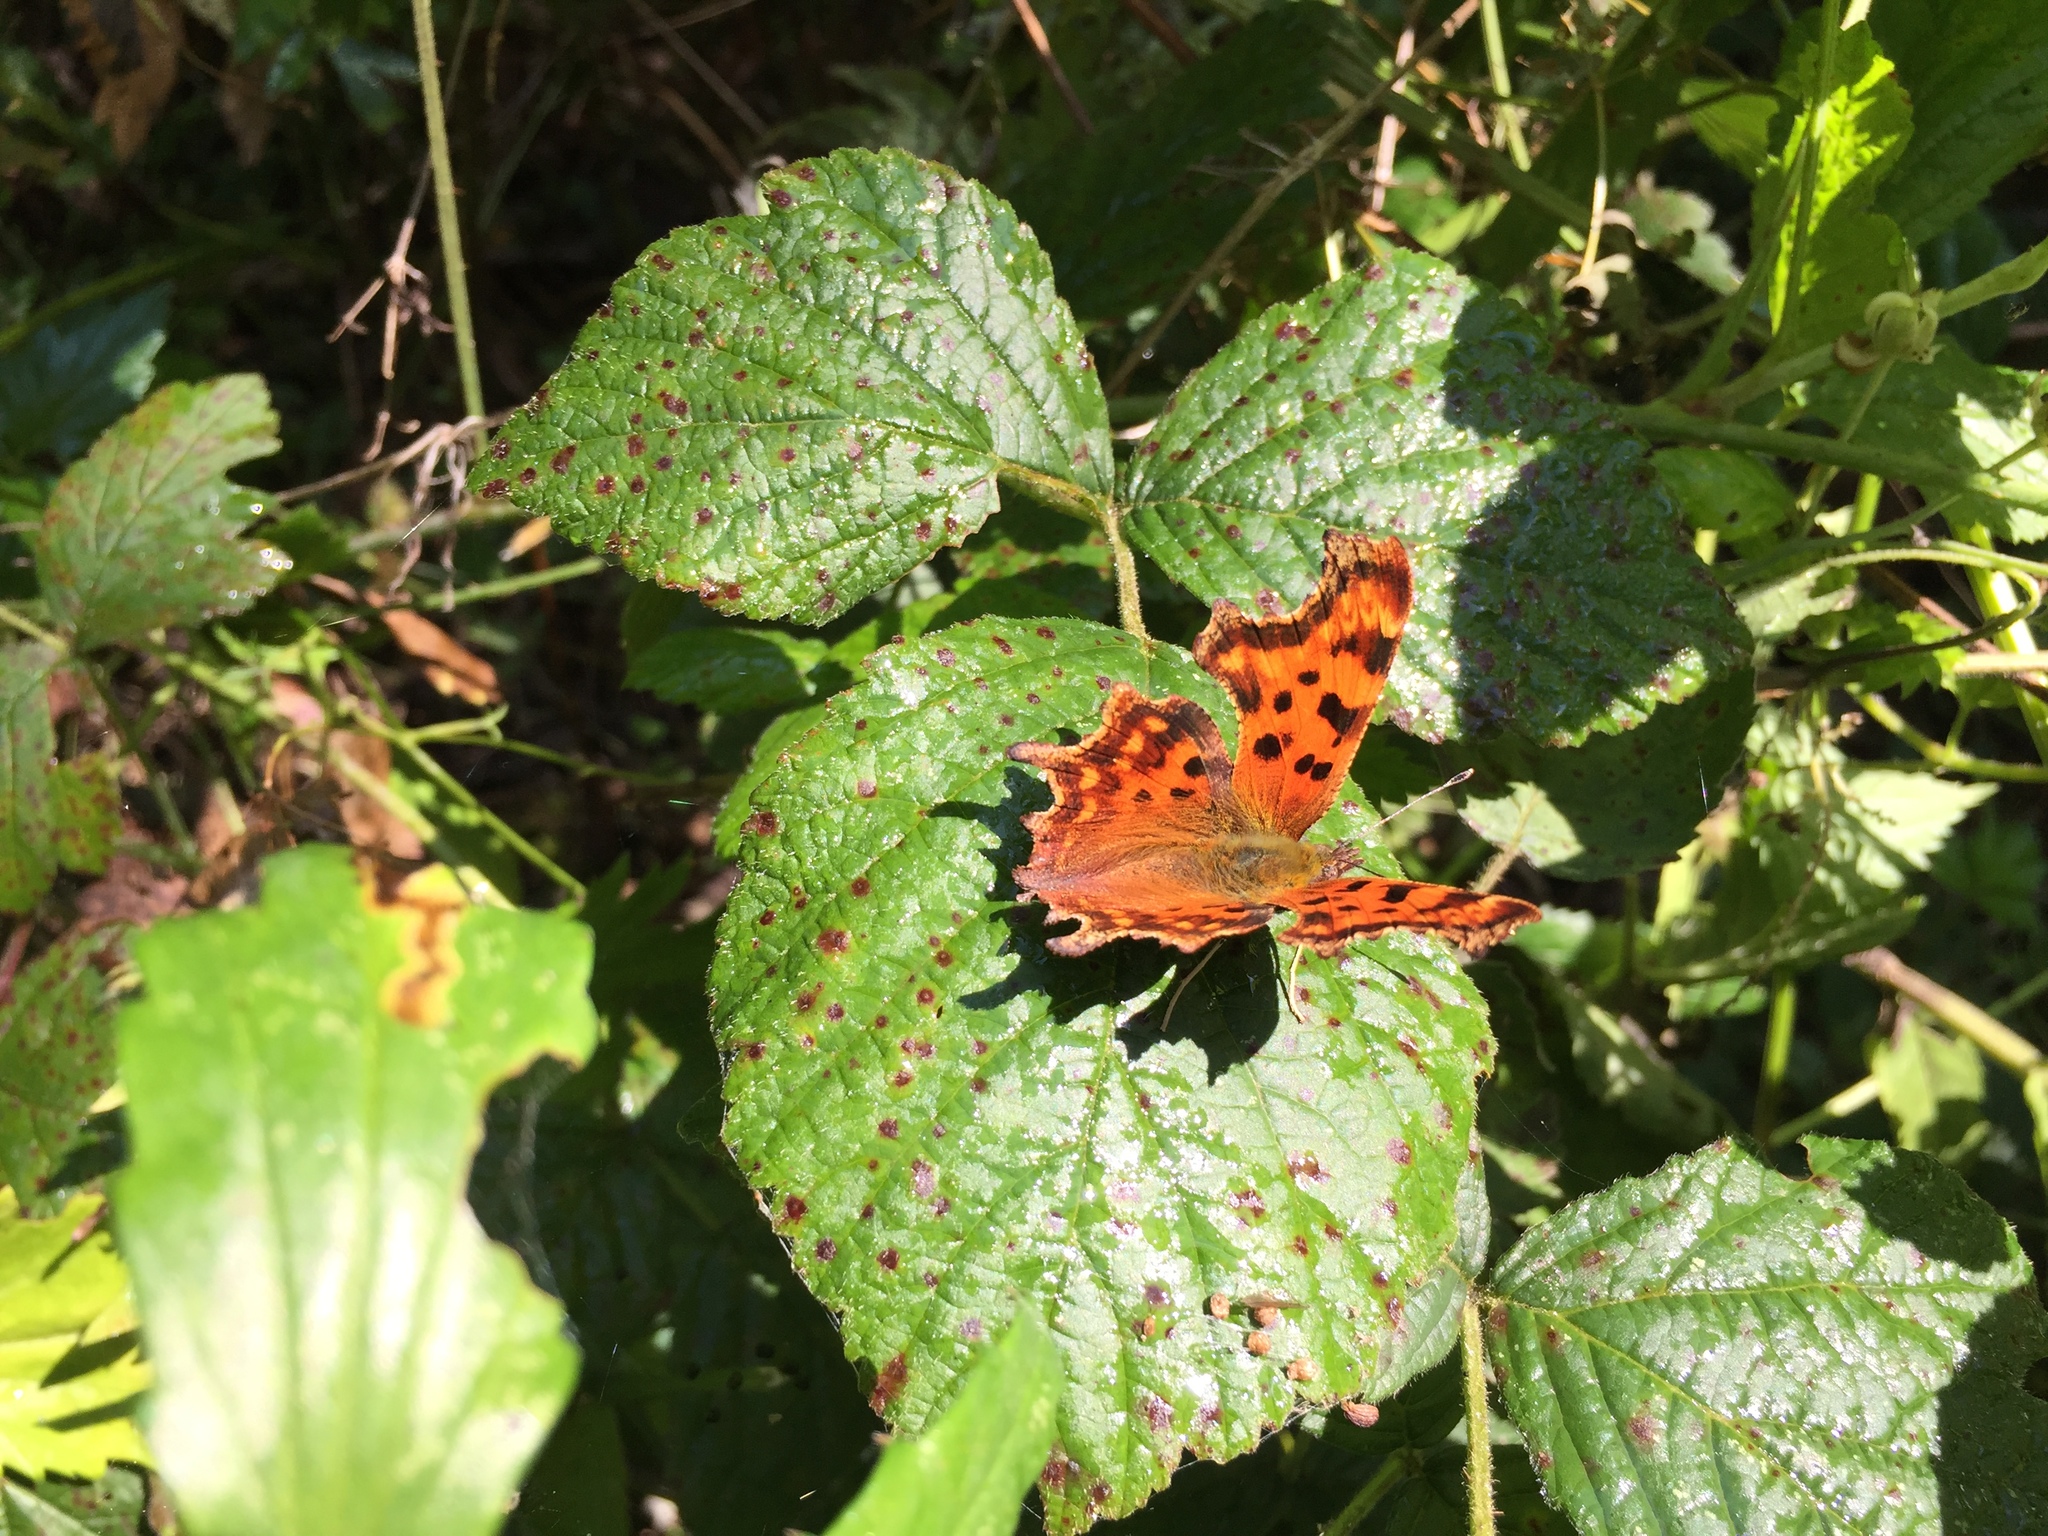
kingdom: Animalia
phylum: Arthropoda
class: Insecta
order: Lepidoptera
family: Nymphalidae
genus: Polygonia
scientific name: Polygonia c-album
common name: Comma
